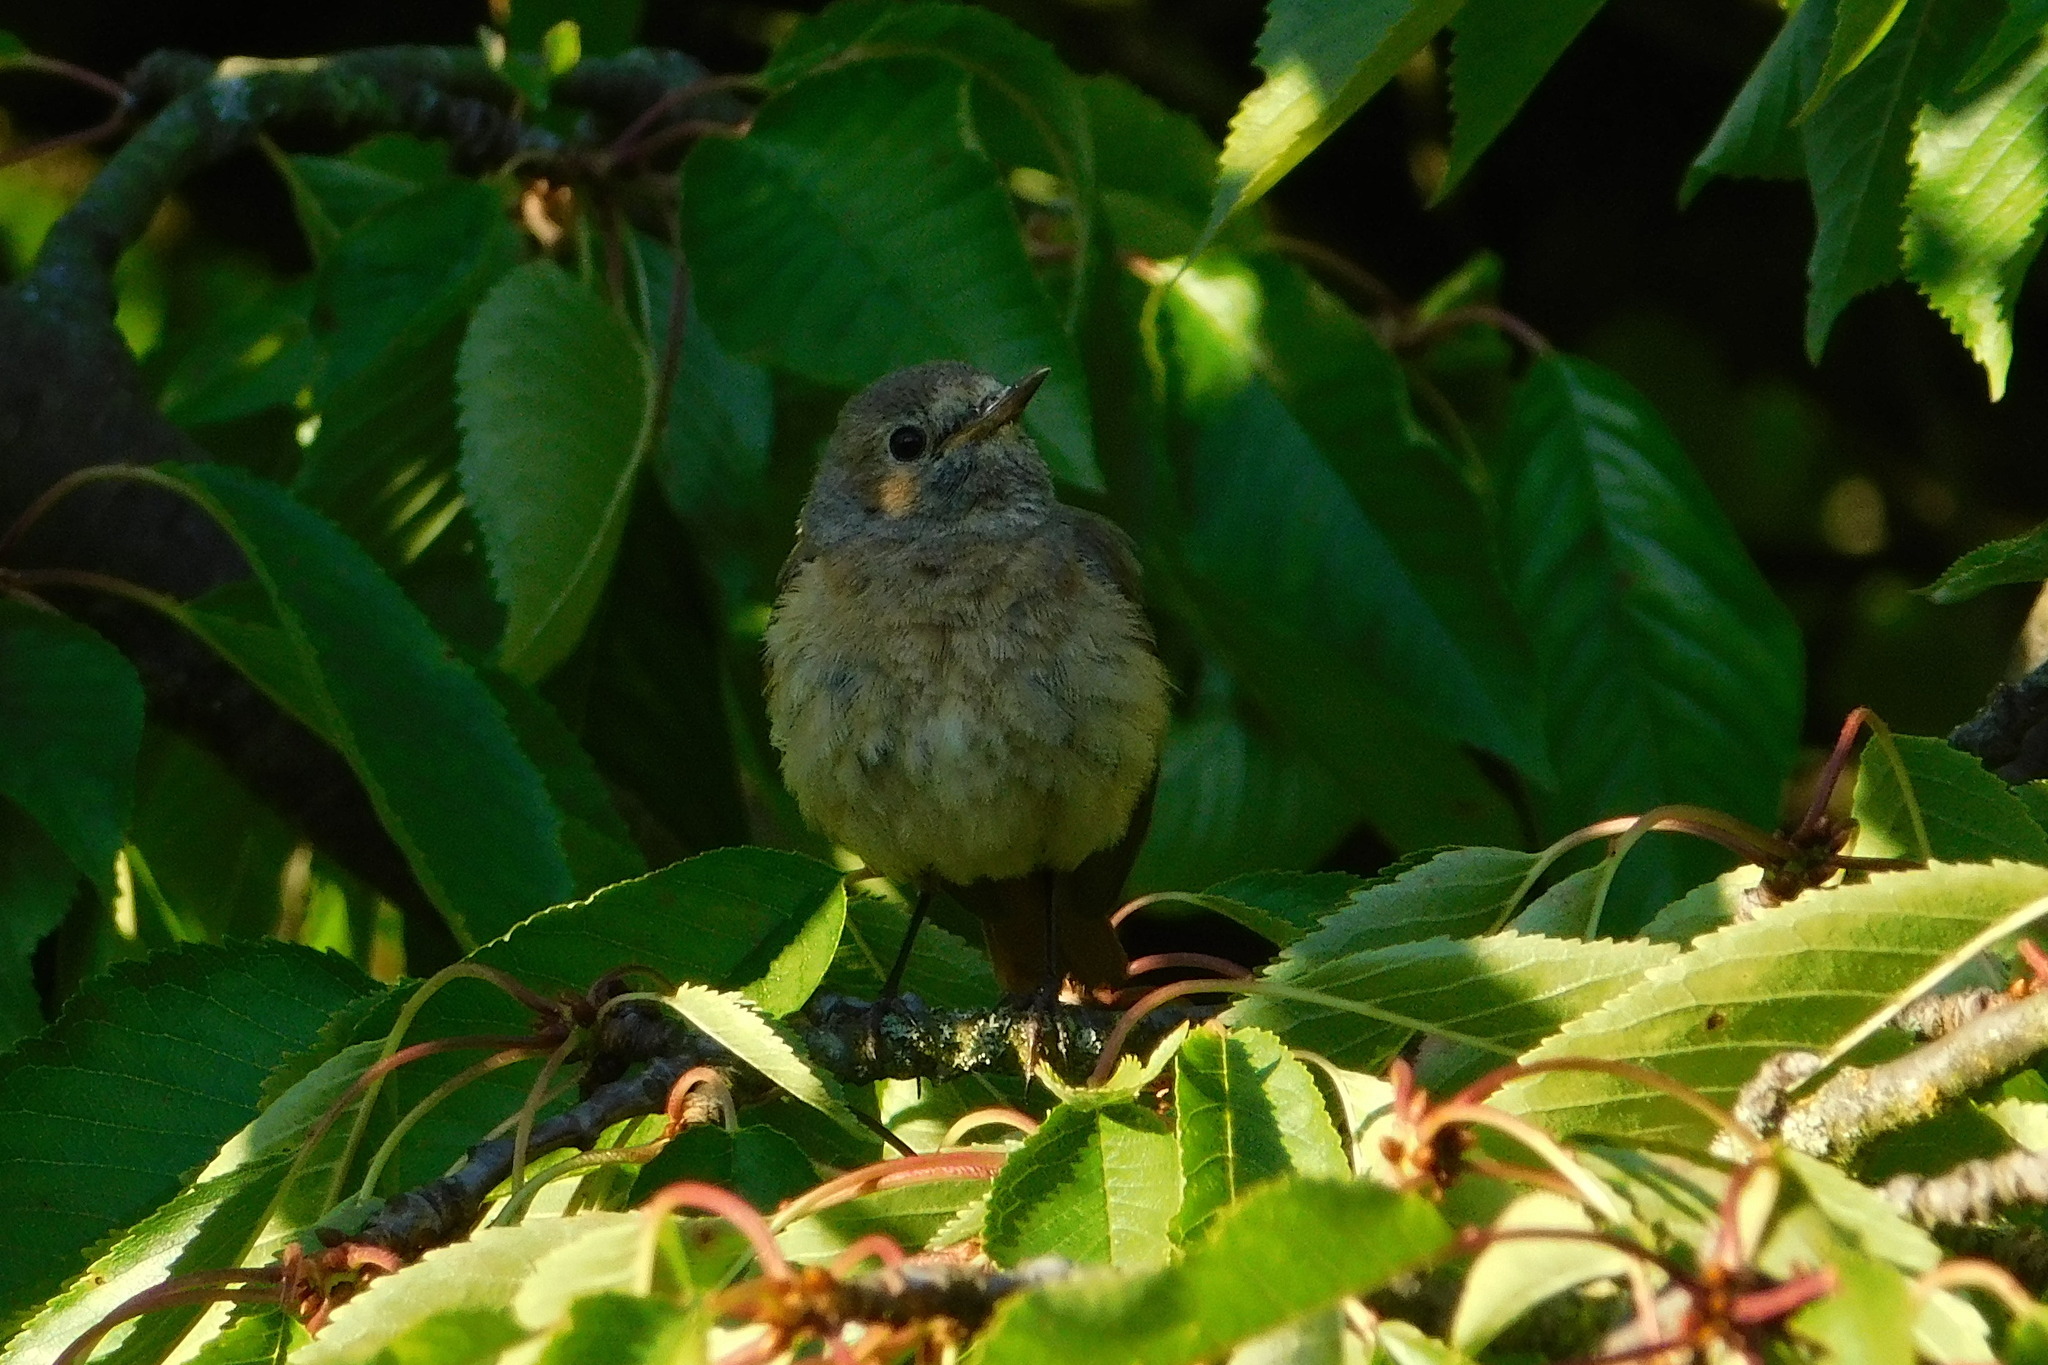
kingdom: Animalia
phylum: Chordata
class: Aves
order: Passeriformes
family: Muscicapidae
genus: Phoenicurus
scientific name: Phoenicurus phoenicurus
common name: Common redstart
